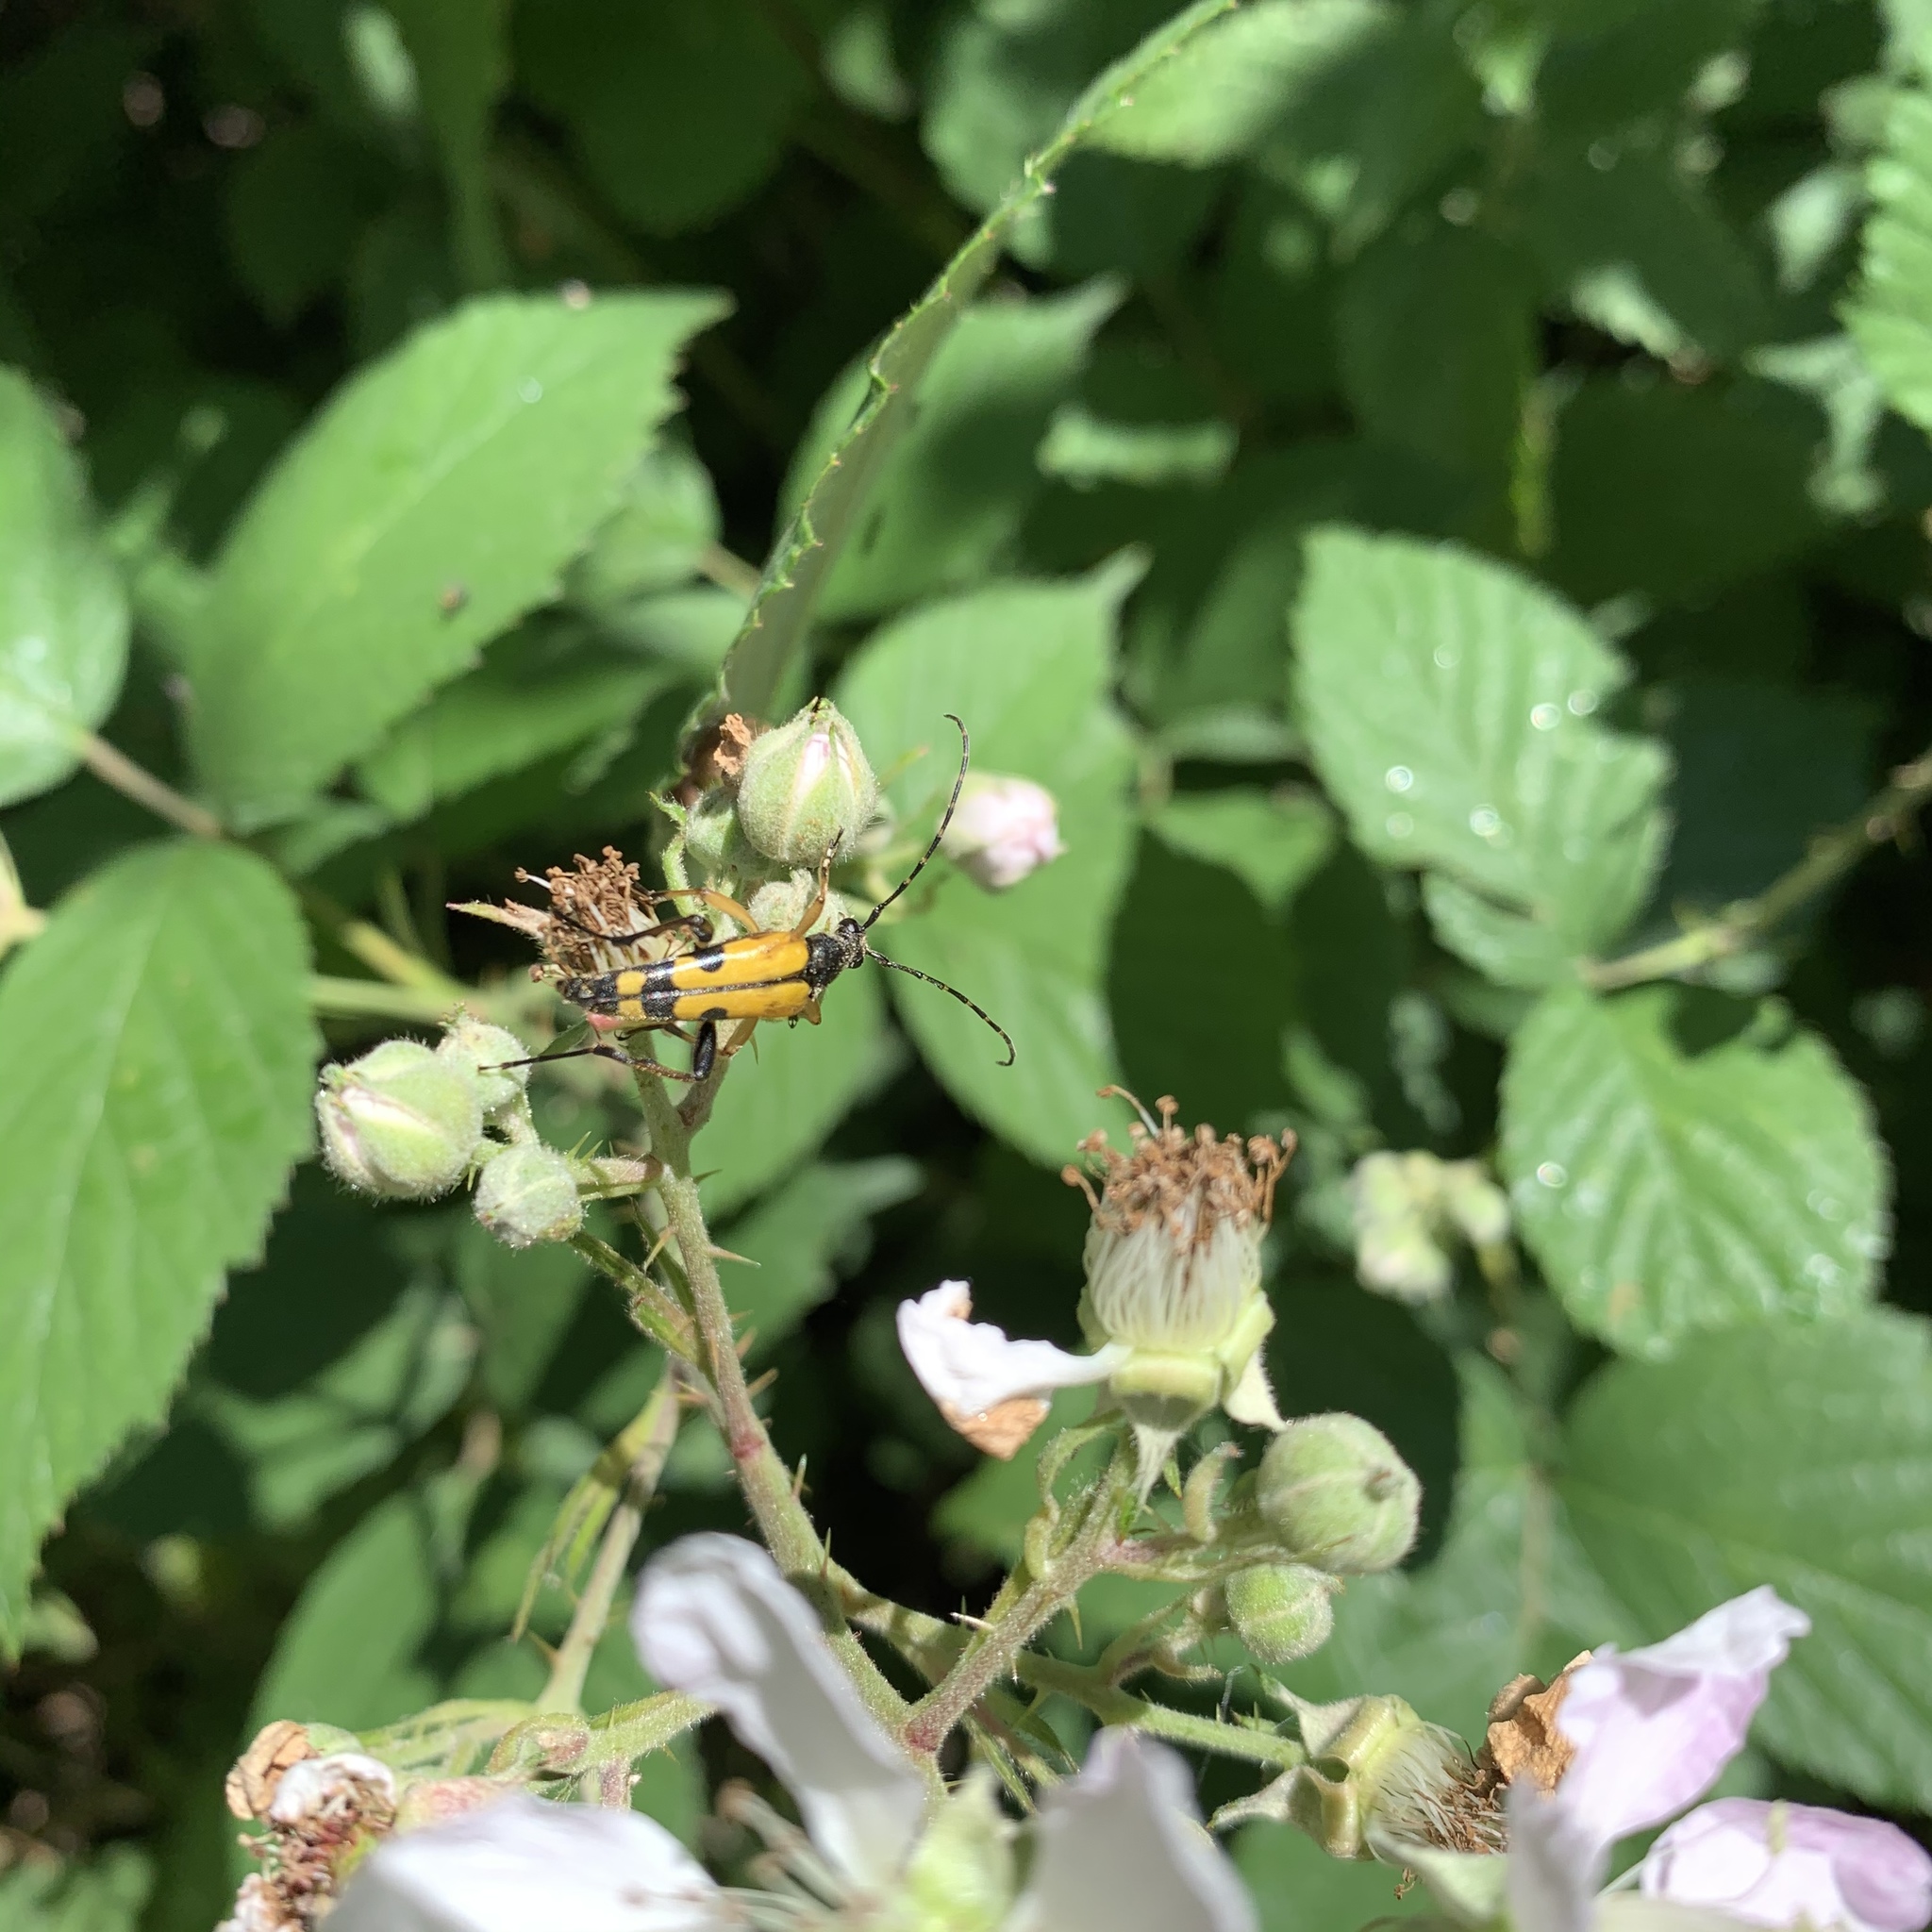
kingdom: Animalia
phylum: Arthropoda
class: Insecta
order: Coleoptera
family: Cerambycidae
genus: Rutpela
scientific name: Rutpela maculata
